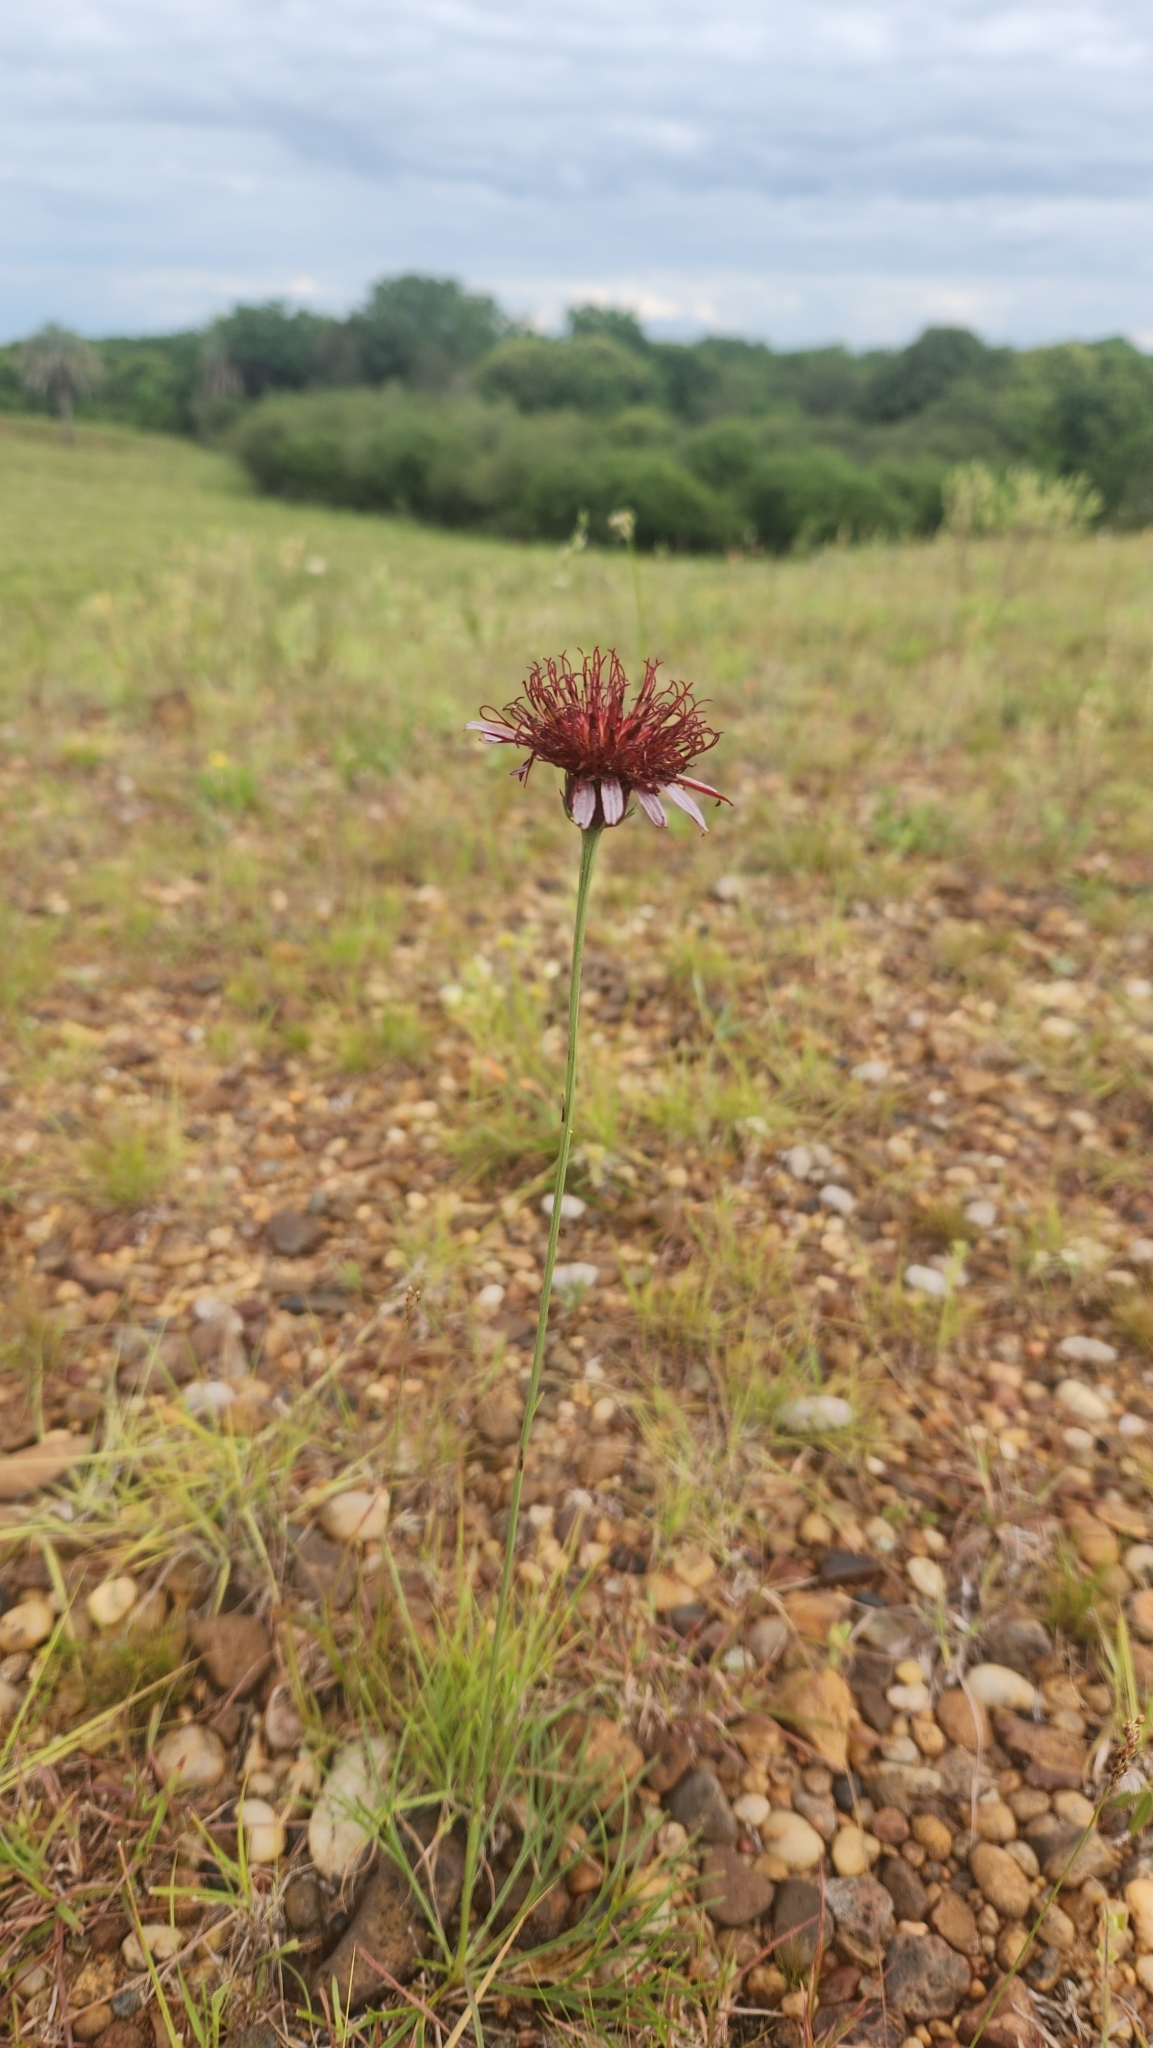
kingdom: Plantae
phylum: Tracheophyta
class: Magnoliopsida
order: Asterales
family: Asteraceae
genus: Isostigma
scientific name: Isostigma peucedanifolium
